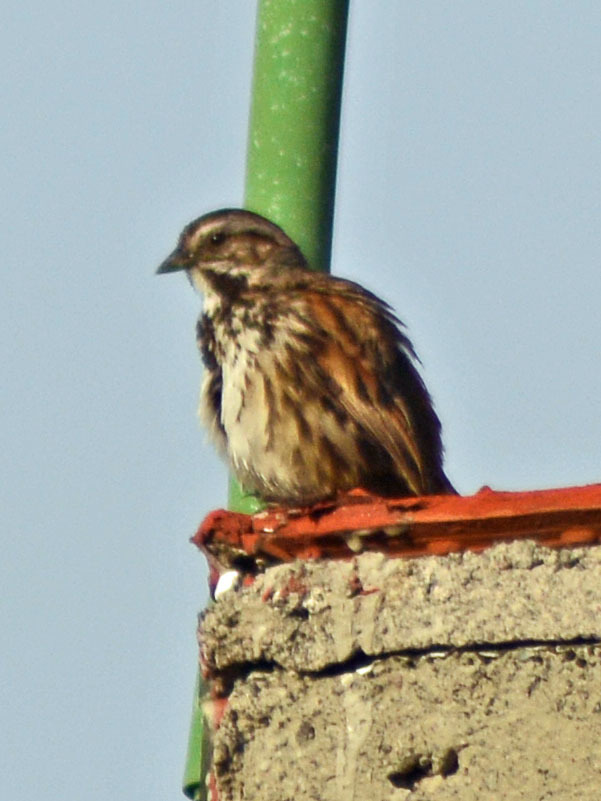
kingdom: Animalia
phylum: Chordata
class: Aves
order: Passeriformes
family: Passerellidae
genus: Melospiza
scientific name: Melospiza melodia
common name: Song sparrow
